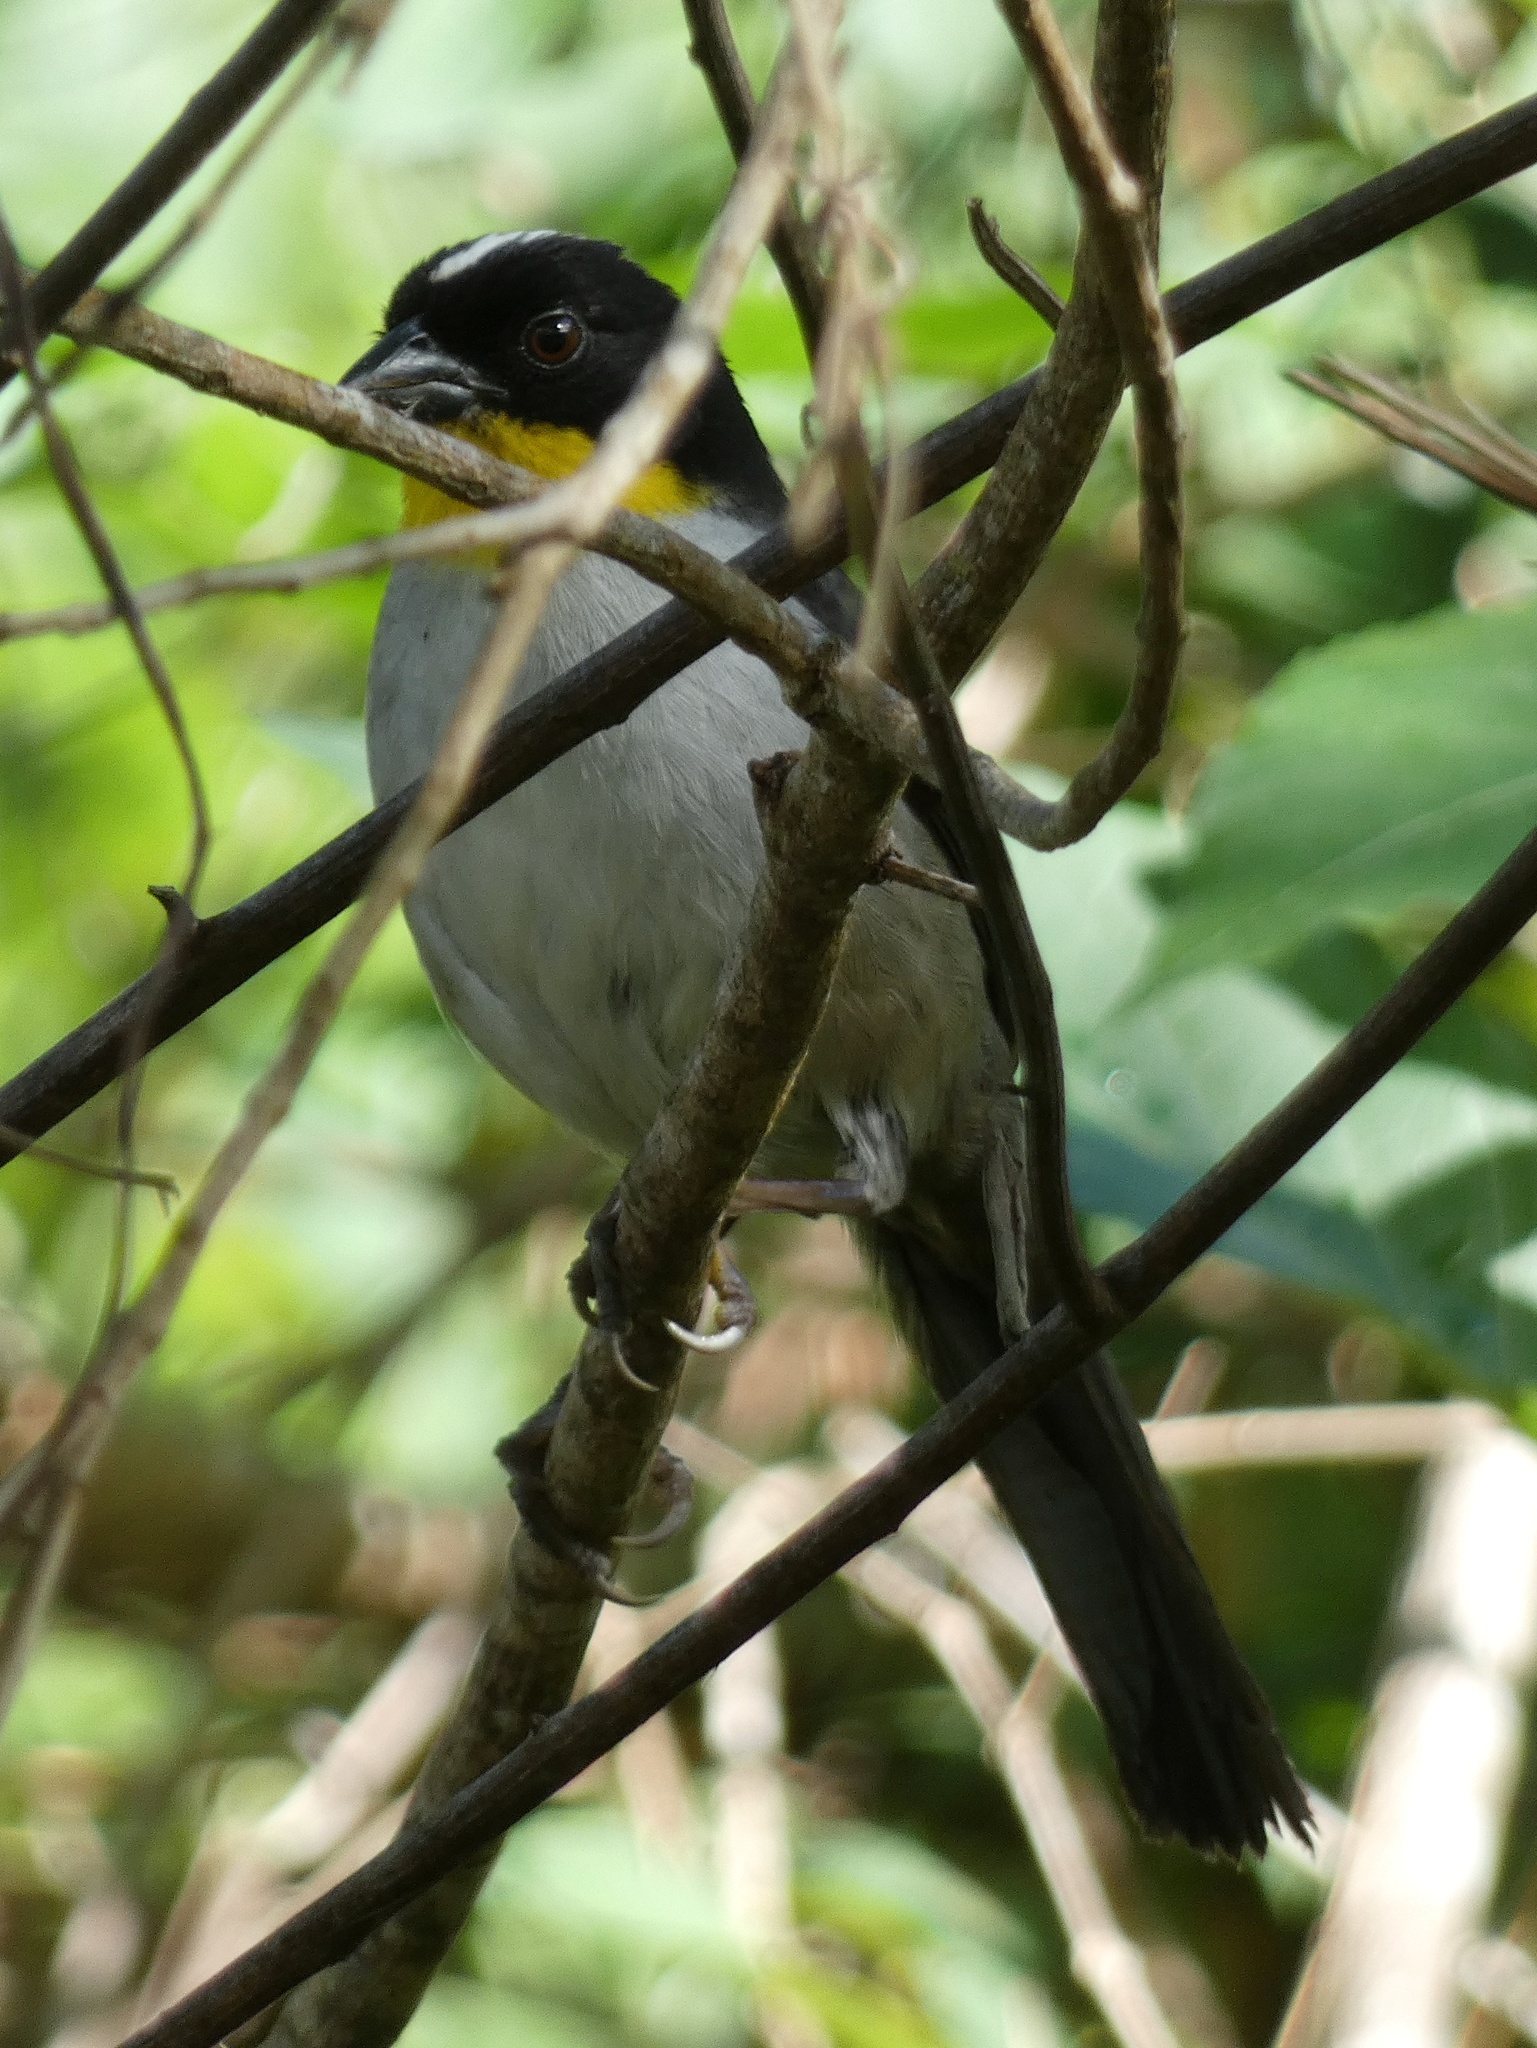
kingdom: Animalia
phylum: Chordata
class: Aves
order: Passeriformes
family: Passerellidae
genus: Atlapetes
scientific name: Atlapetes albinucha
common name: White-naped brush-finch
